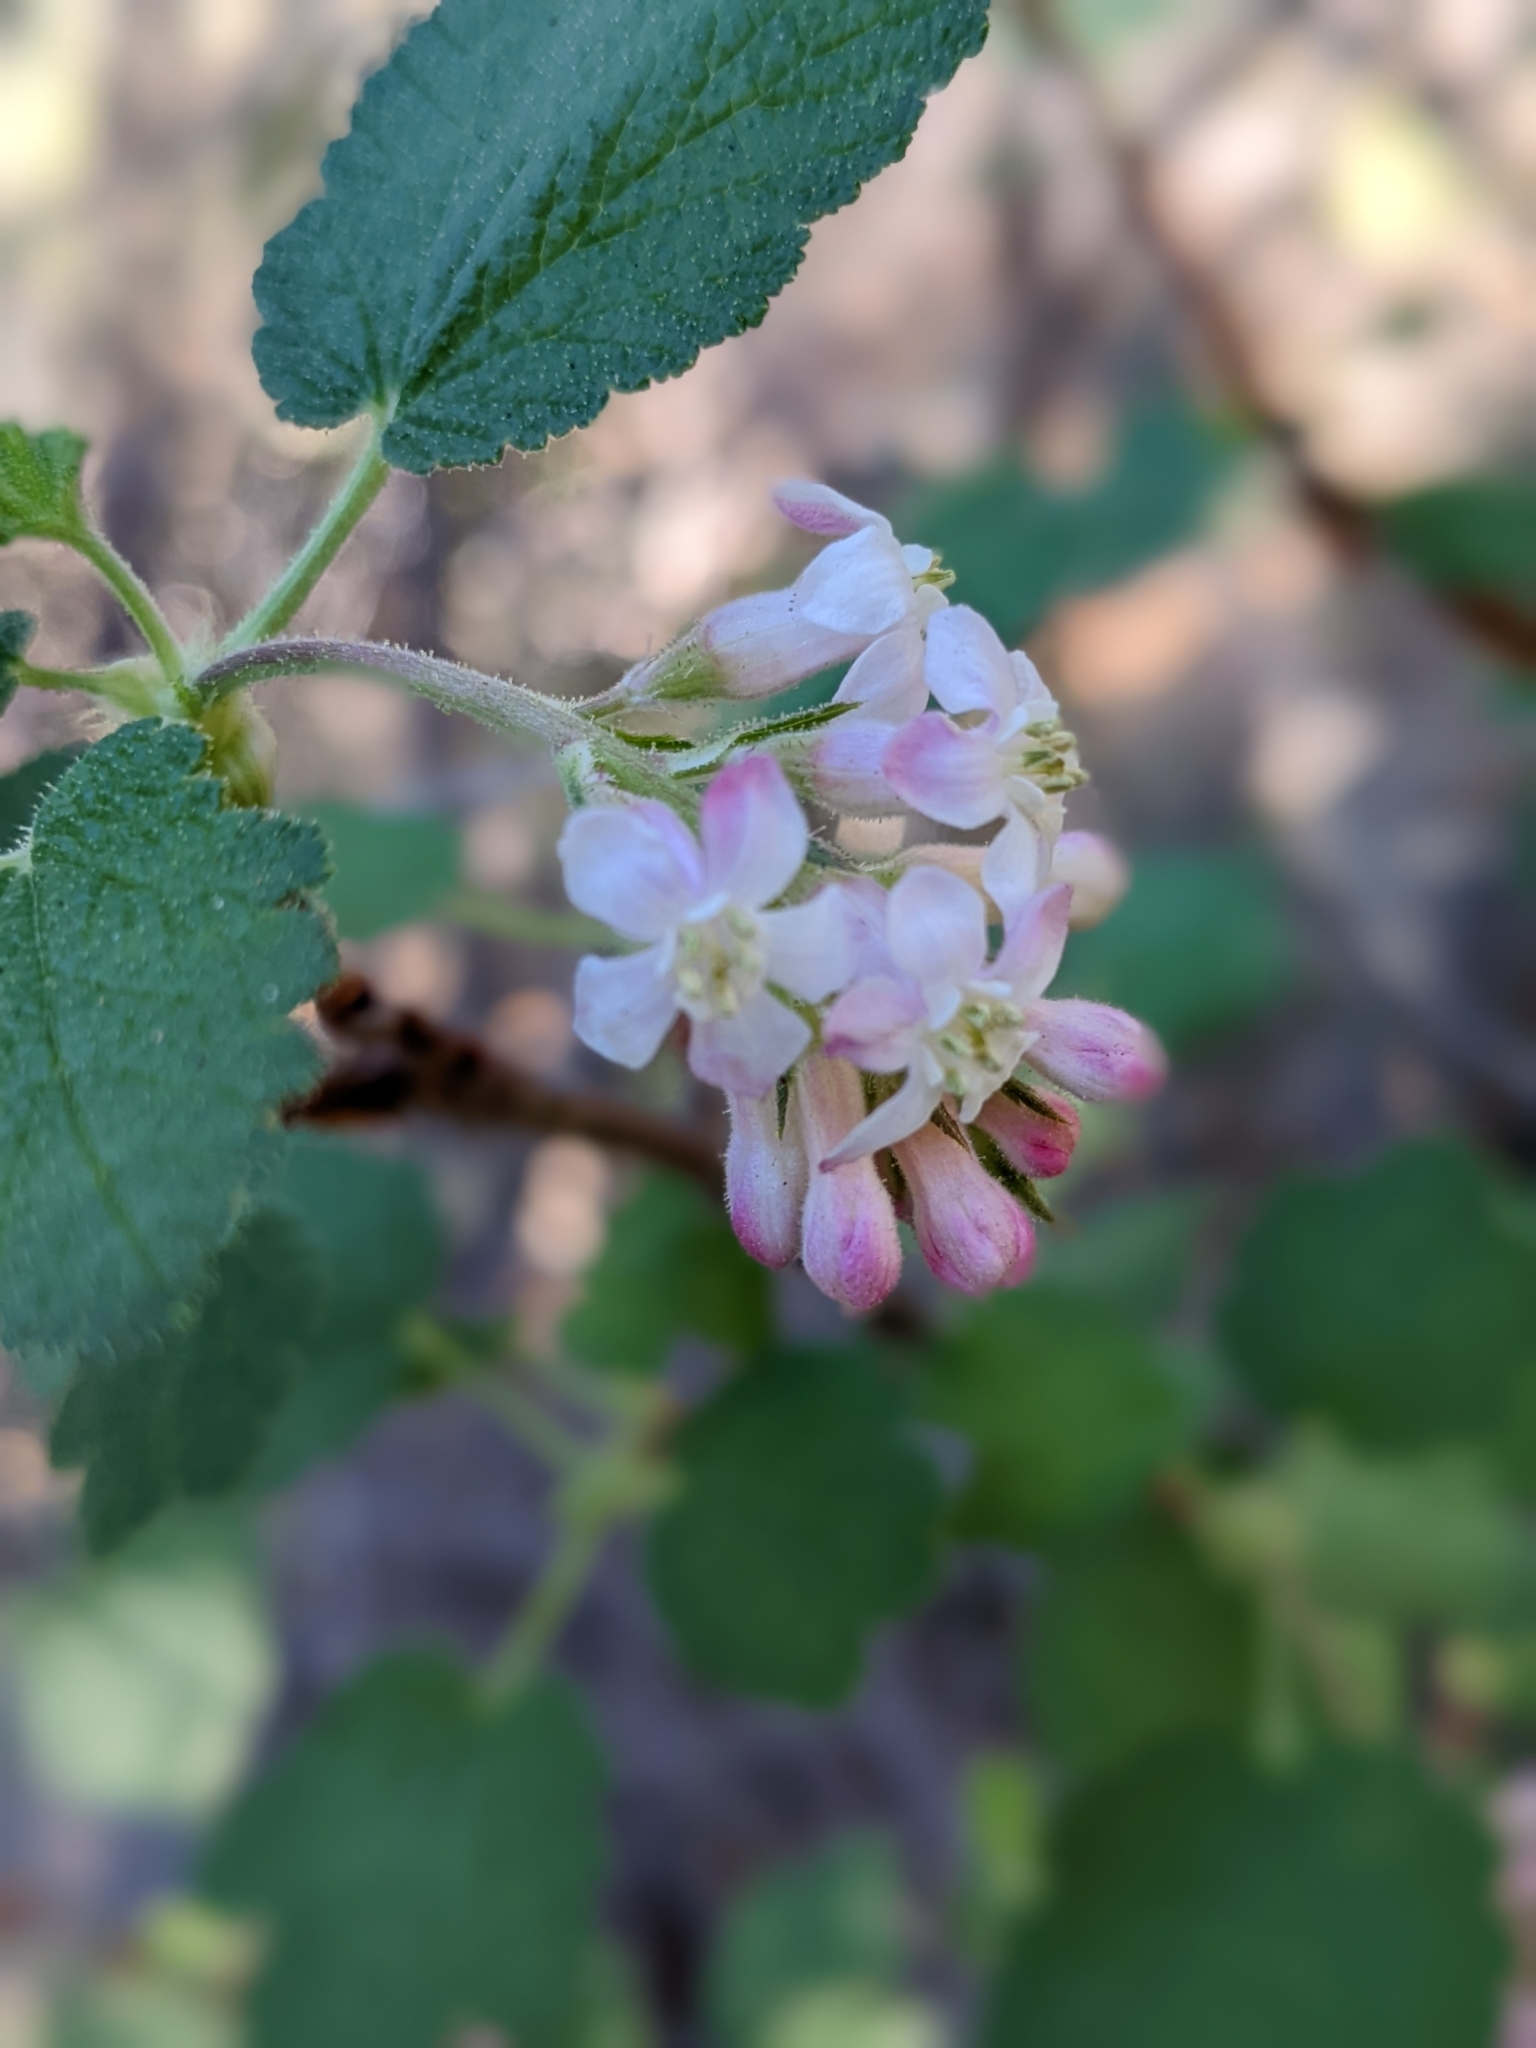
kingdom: Plantae
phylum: Tracheophyta
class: Magnoliopsida
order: Saxifragales
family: Grossulariaceae
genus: Ribes
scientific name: Ribes malvaceum
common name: Chaparral currant
